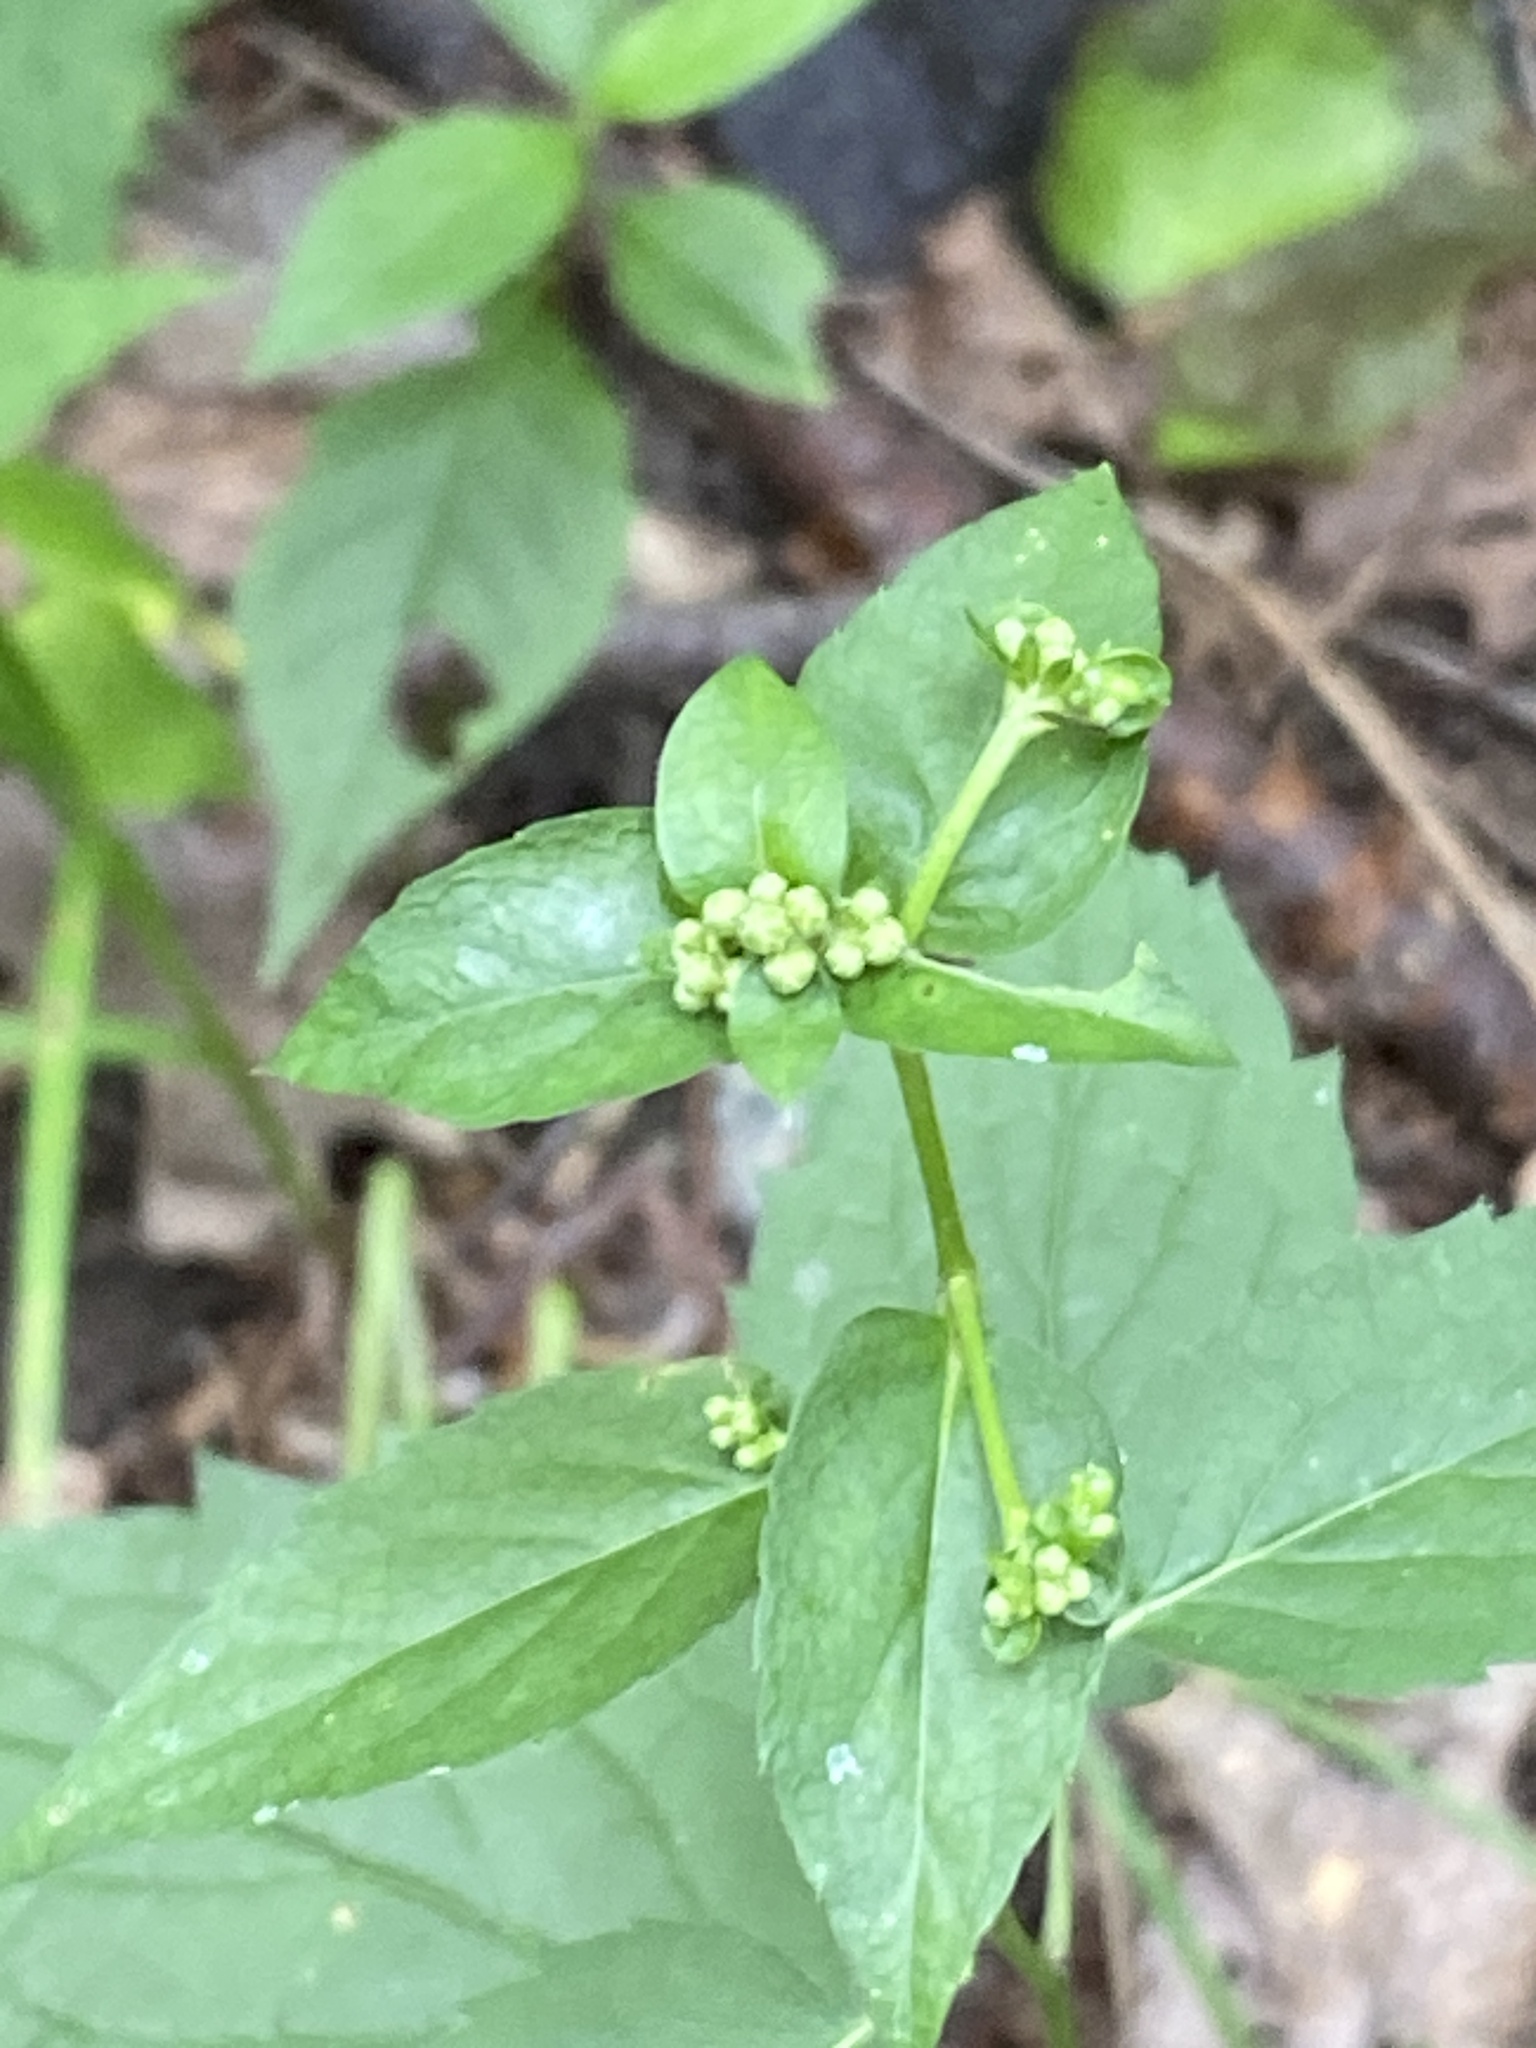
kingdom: Plantae
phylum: Tracheophyta
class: Magnoliopsida
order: Asterales
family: Asteraceae
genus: Eurybia
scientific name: Eurybia divaricata
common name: White wood aster
